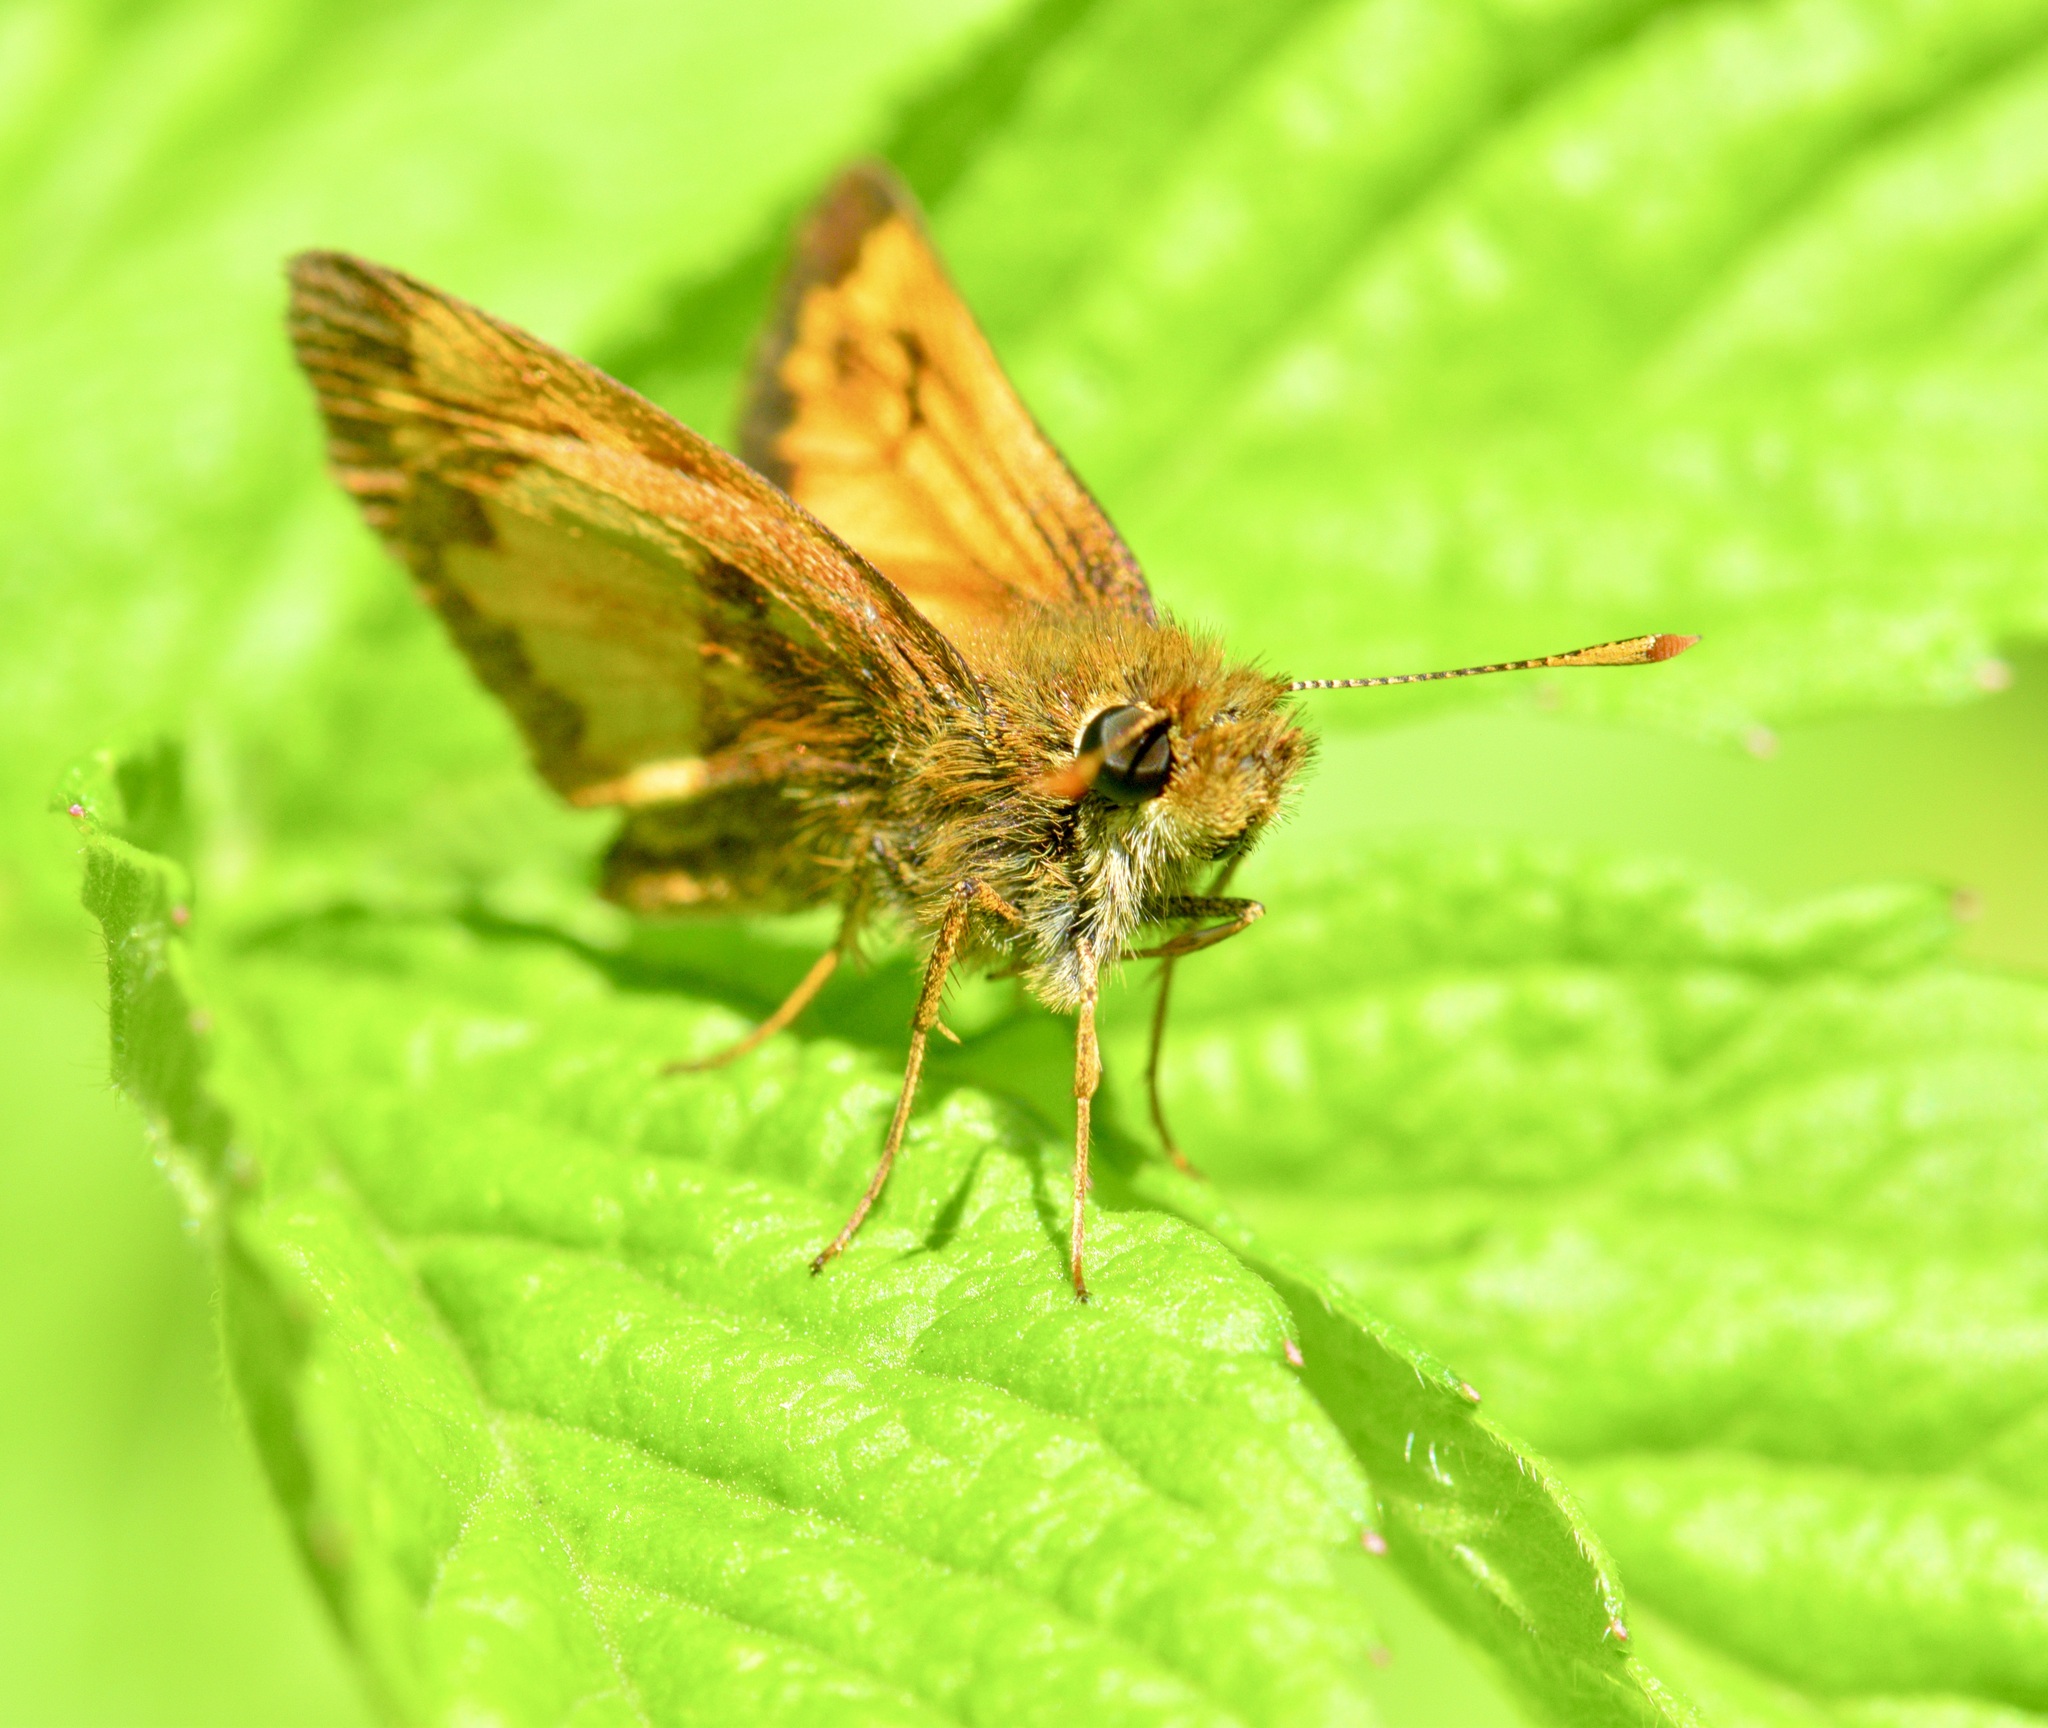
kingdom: Animalia
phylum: Arthropoda
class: Insecta
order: Lepidoptera
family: Hesperiidae
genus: Lon
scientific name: Lon hobomok
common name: Hobomok skipper
